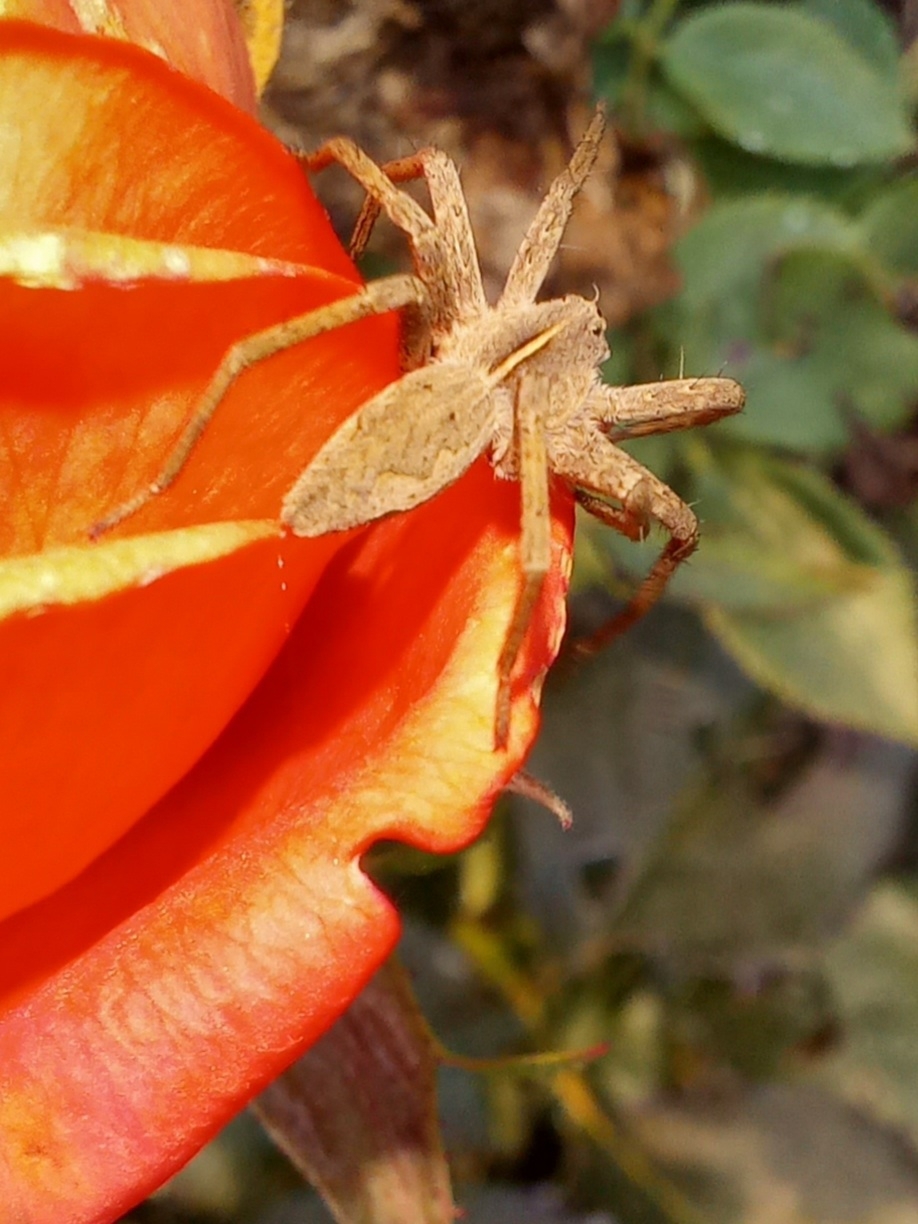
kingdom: Animalia
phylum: Arthropoda
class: Arachnida
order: Araneae
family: Pisauridae
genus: Pisaura
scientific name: Pisaura
